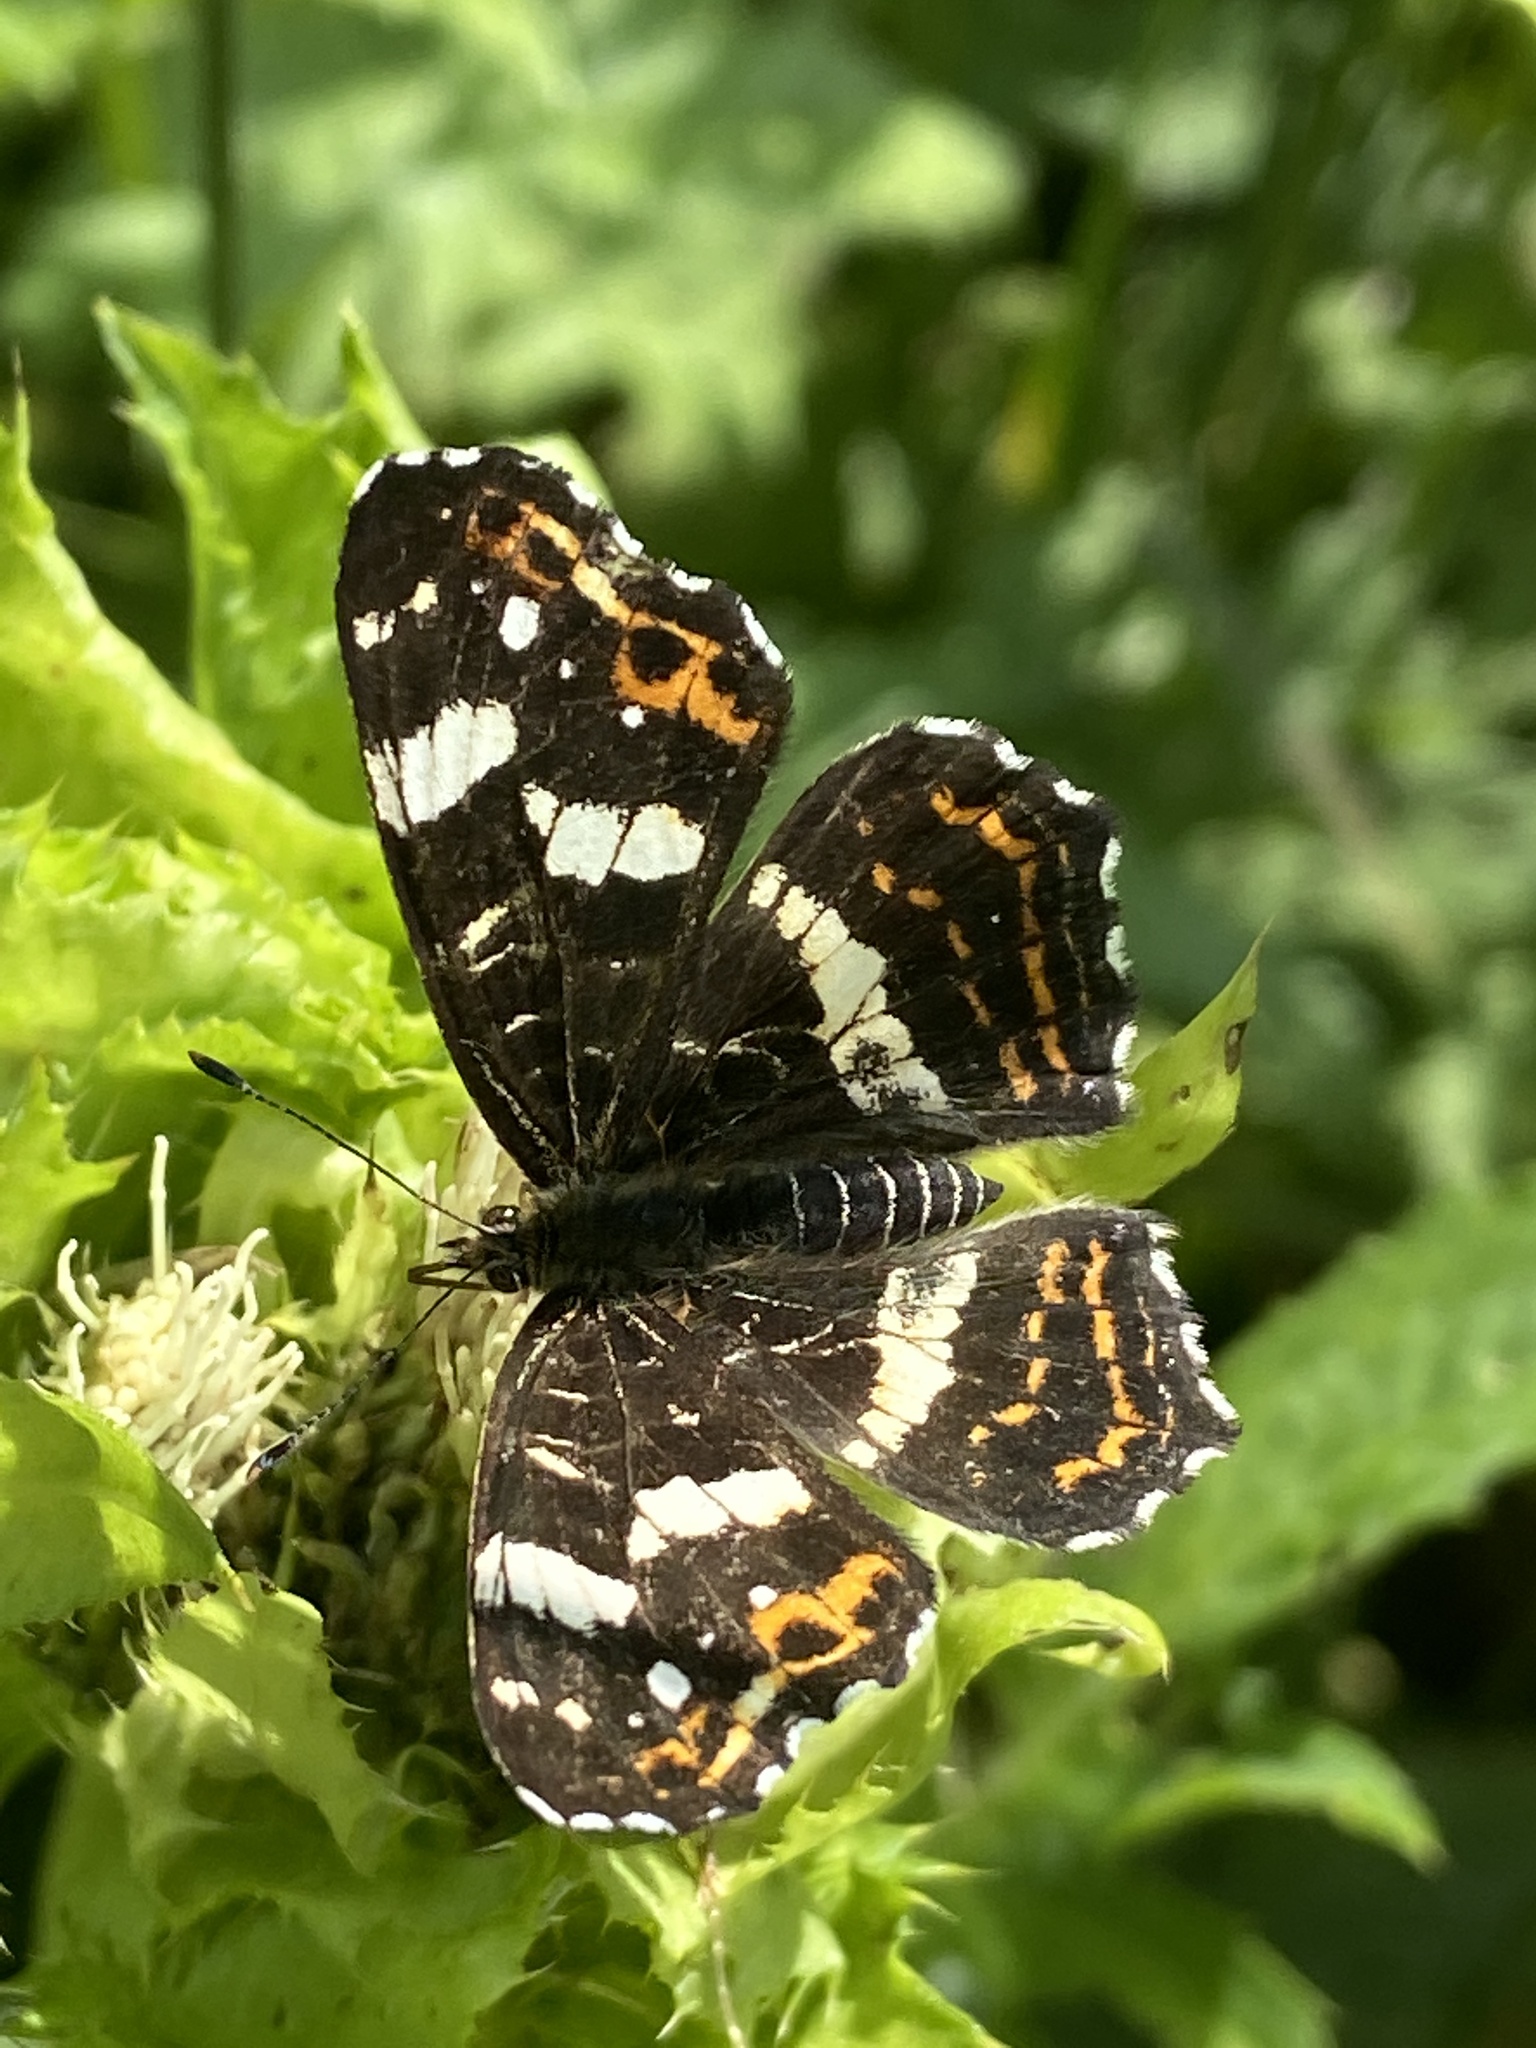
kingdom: Animalia
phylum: Arthropoda
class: Insecta
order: Lepidoptera
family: Nymphalidae
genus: Araschnia
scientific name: Araschnia levana
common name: Map butterfly
